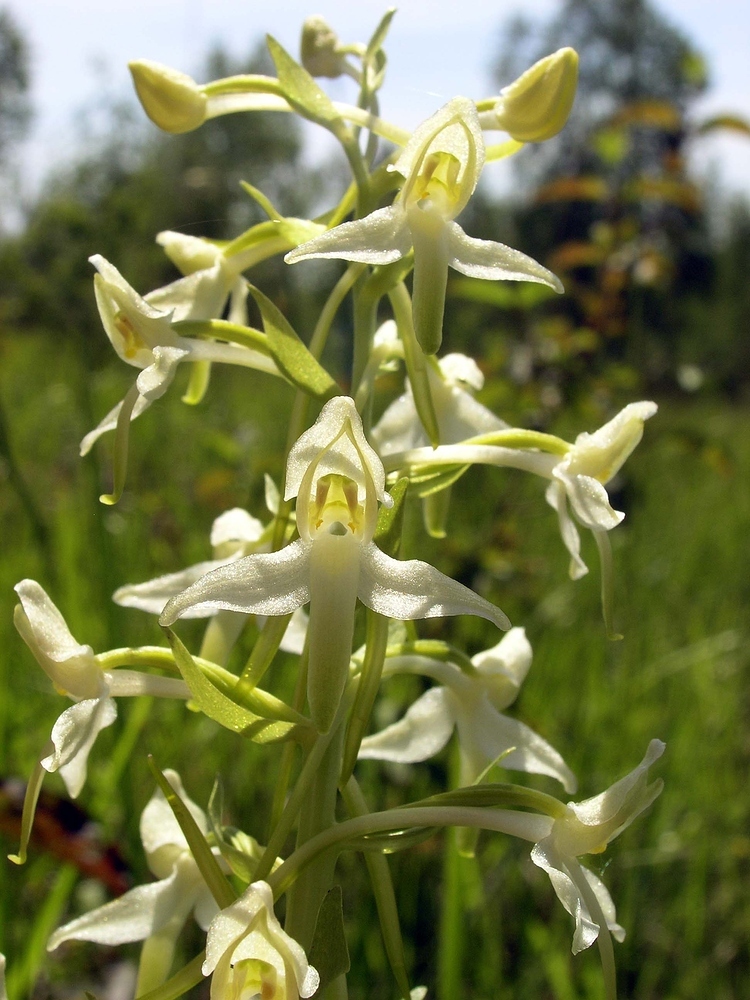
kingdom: Plantae
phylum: Tracheophyta
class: Liliopsida
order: Asparagales
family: Orchidaceae
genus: Platanthera
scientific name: Platanthera chlorantha
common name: Greater butterfly-orchid
